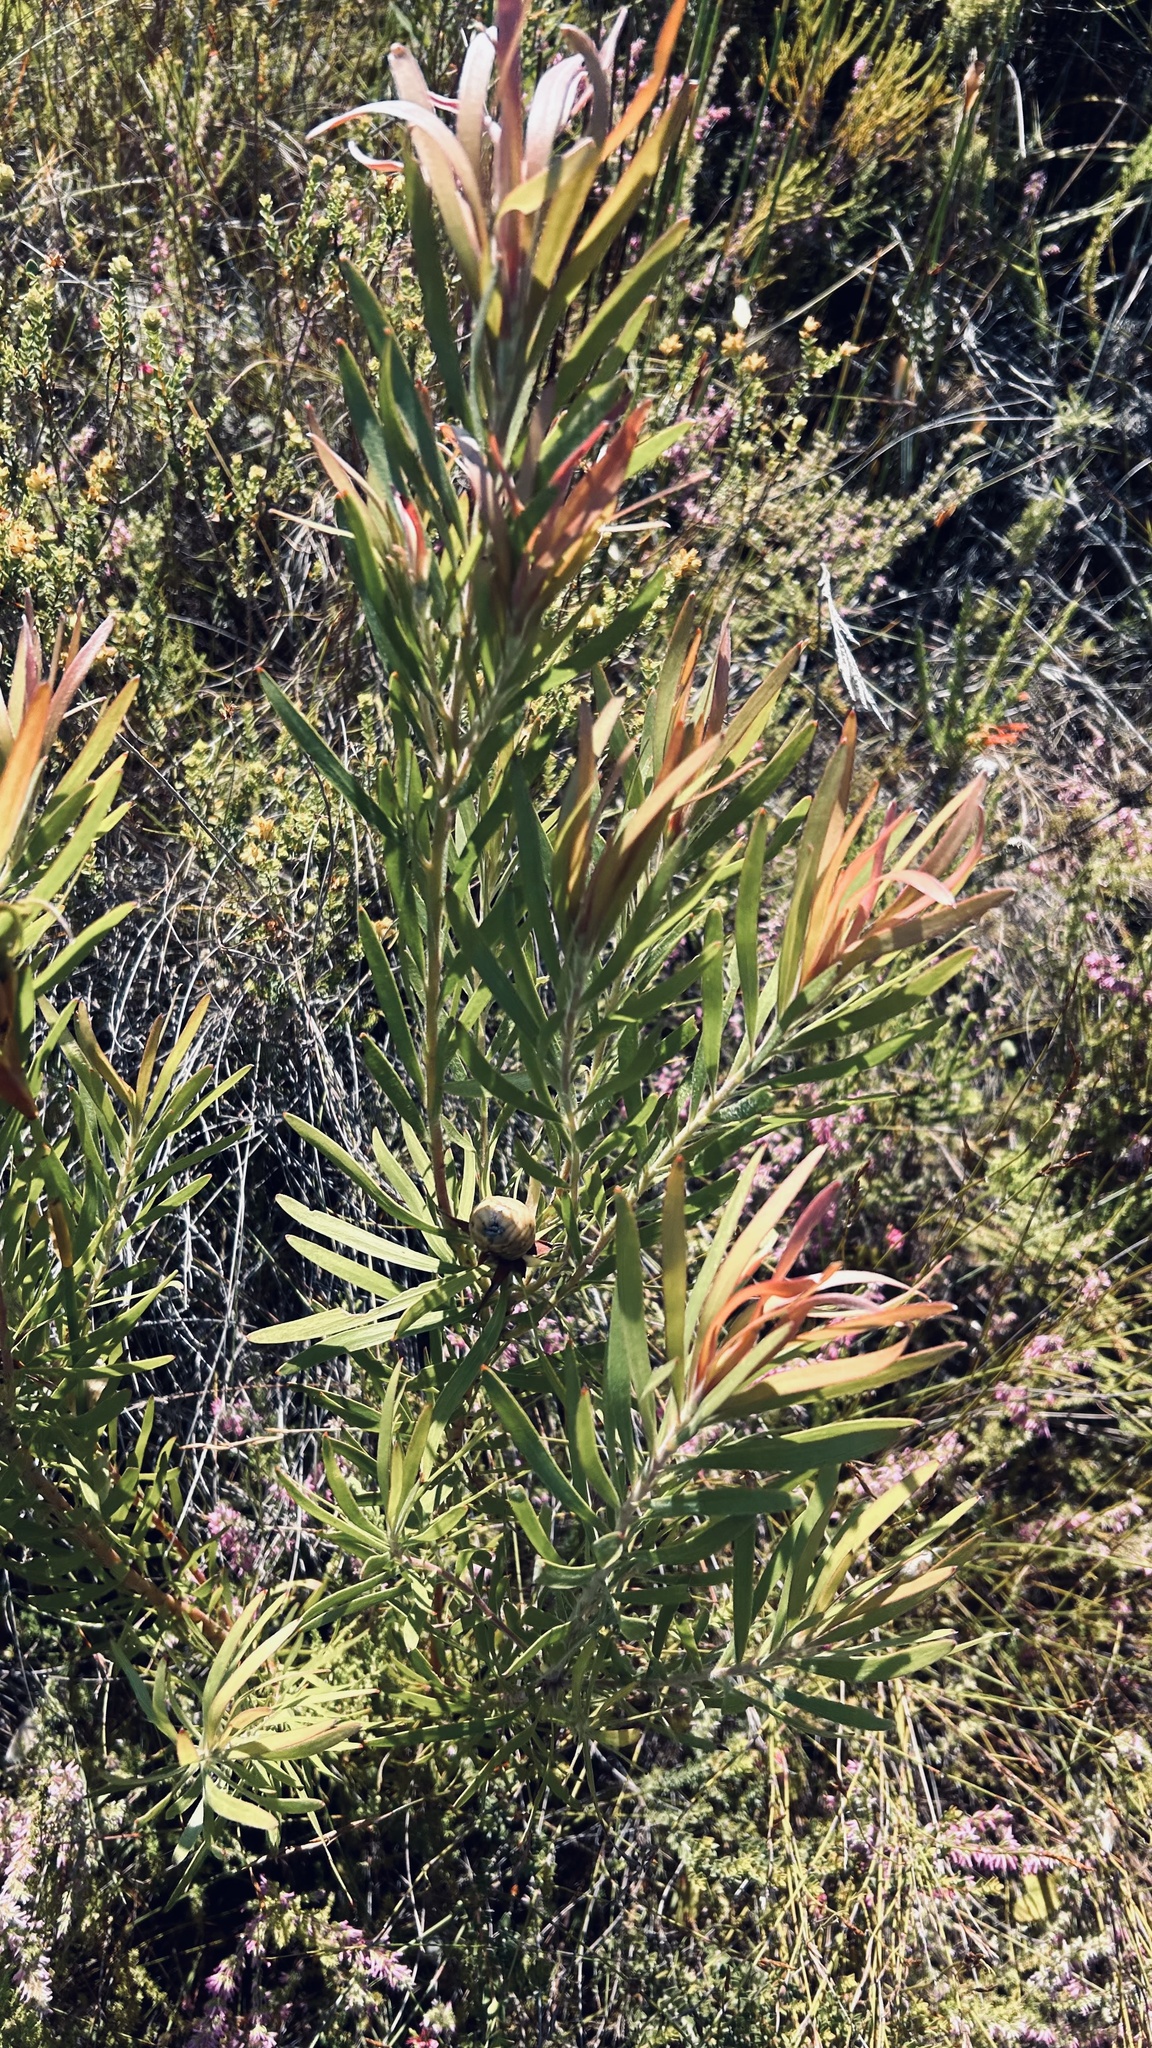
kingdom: Plantae
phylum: Tracheophyta
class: Magnoliopsida
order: Proteales
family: Proteaceae
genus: Leucadendron
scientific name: Leucadendron eucalyptifolium
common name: Gum-leaved conebush
